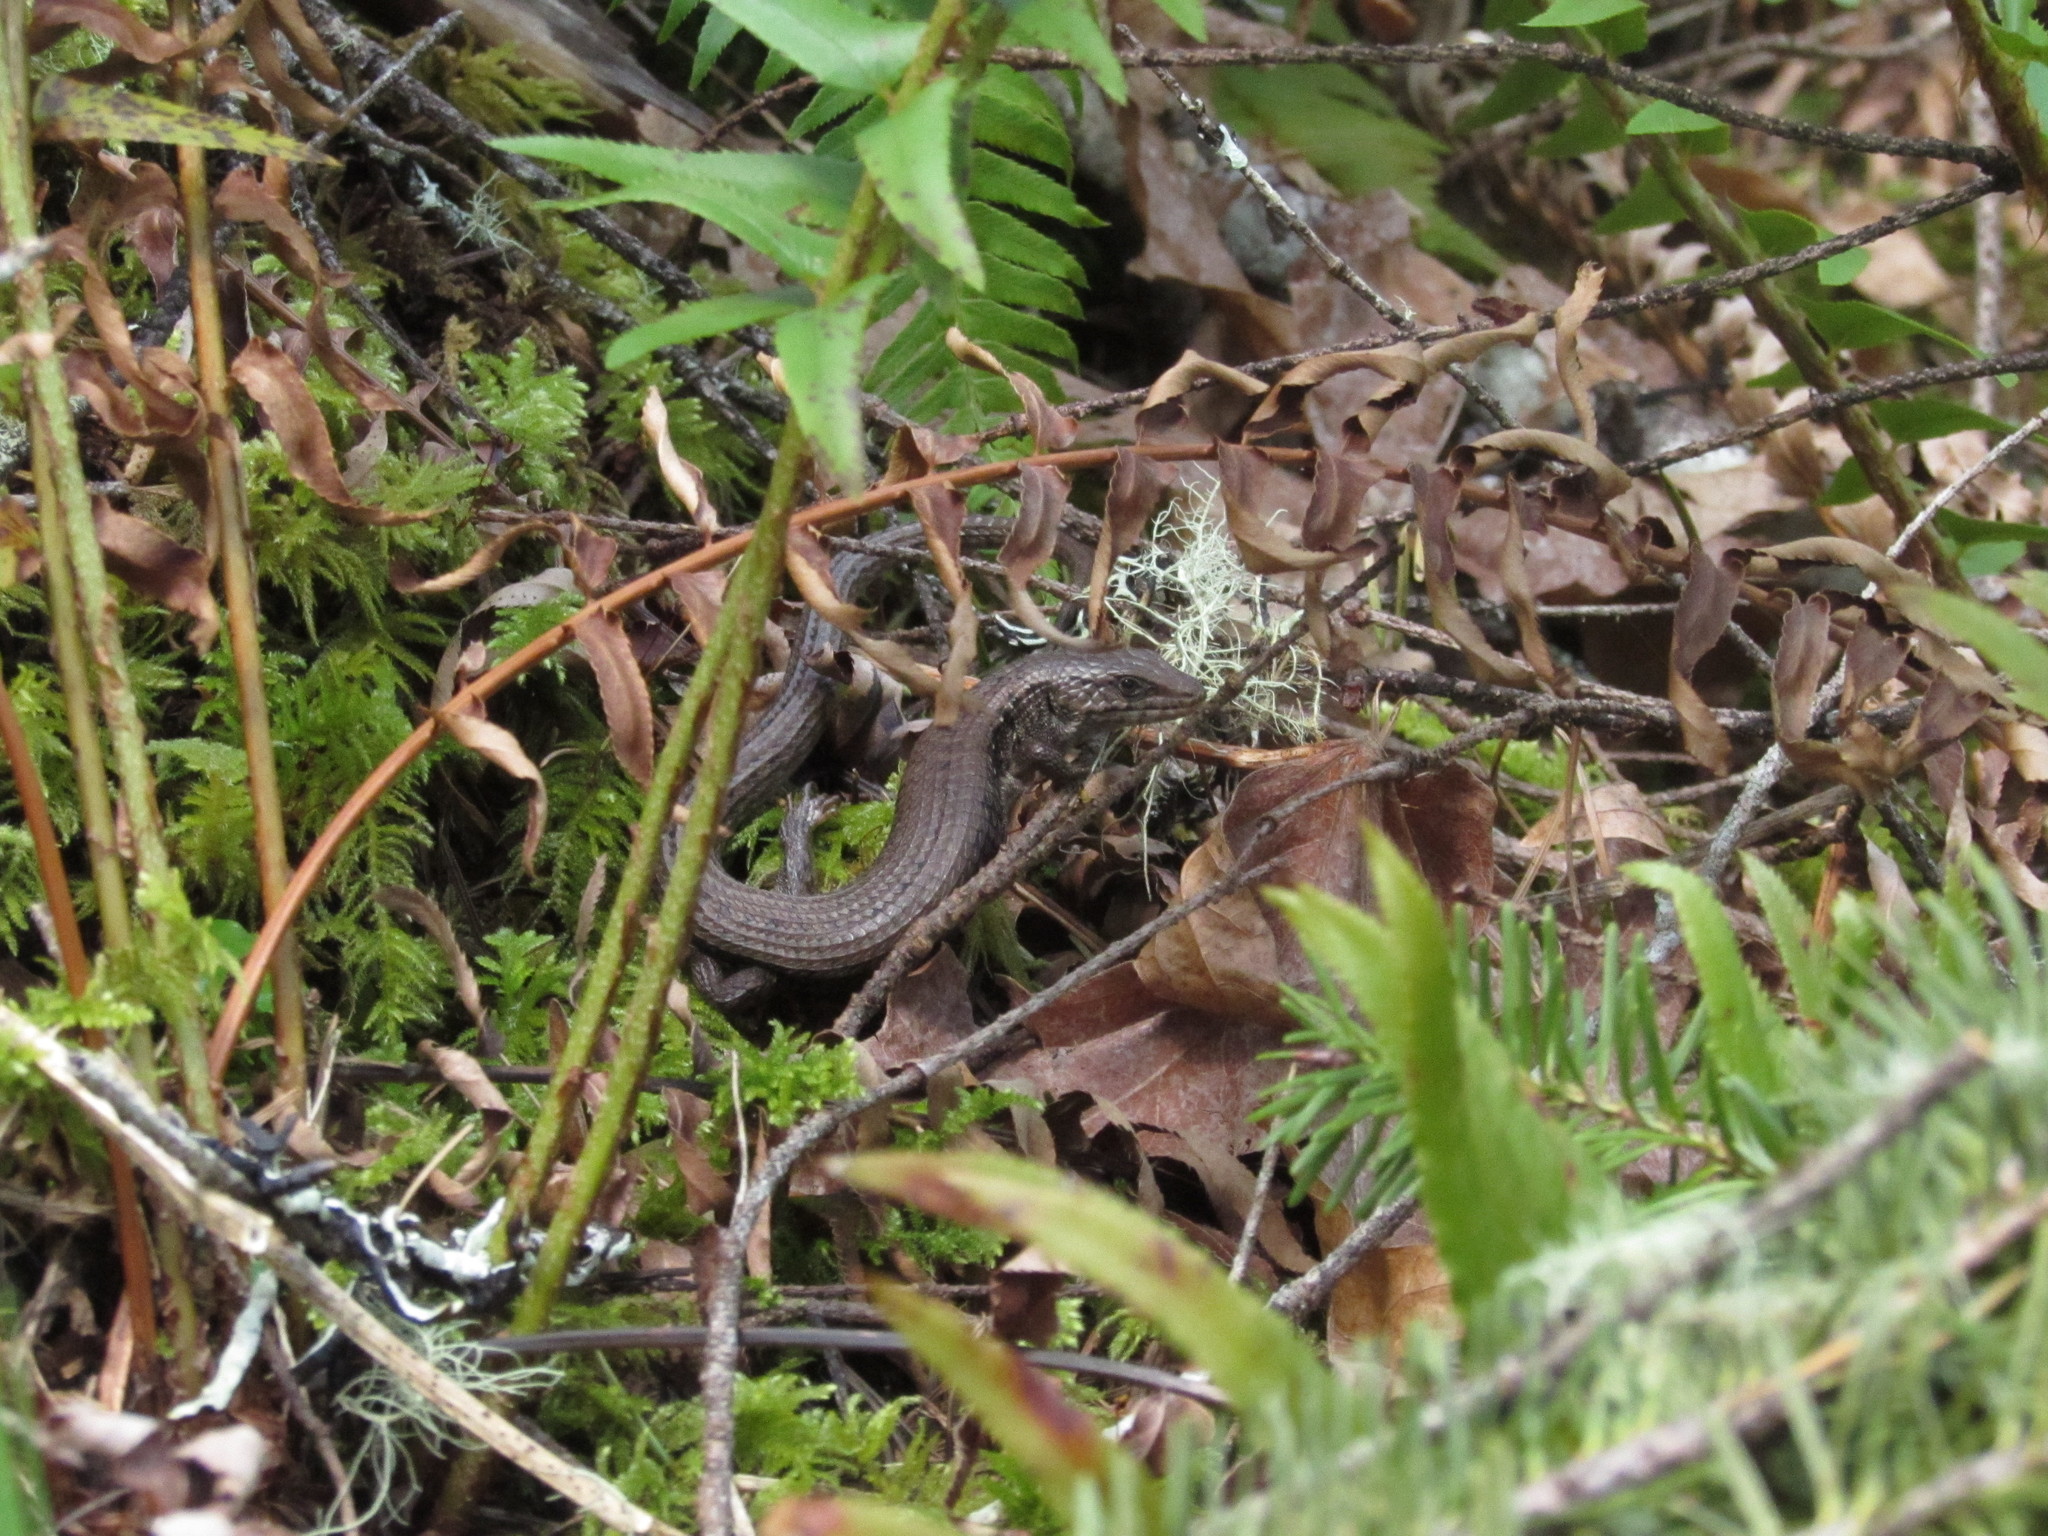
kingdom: Animalia
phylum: Chordata
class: Squamata
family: Anguidae
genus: Elgaria
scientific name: Elgaria coerulea
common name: Northern alligator lizard
